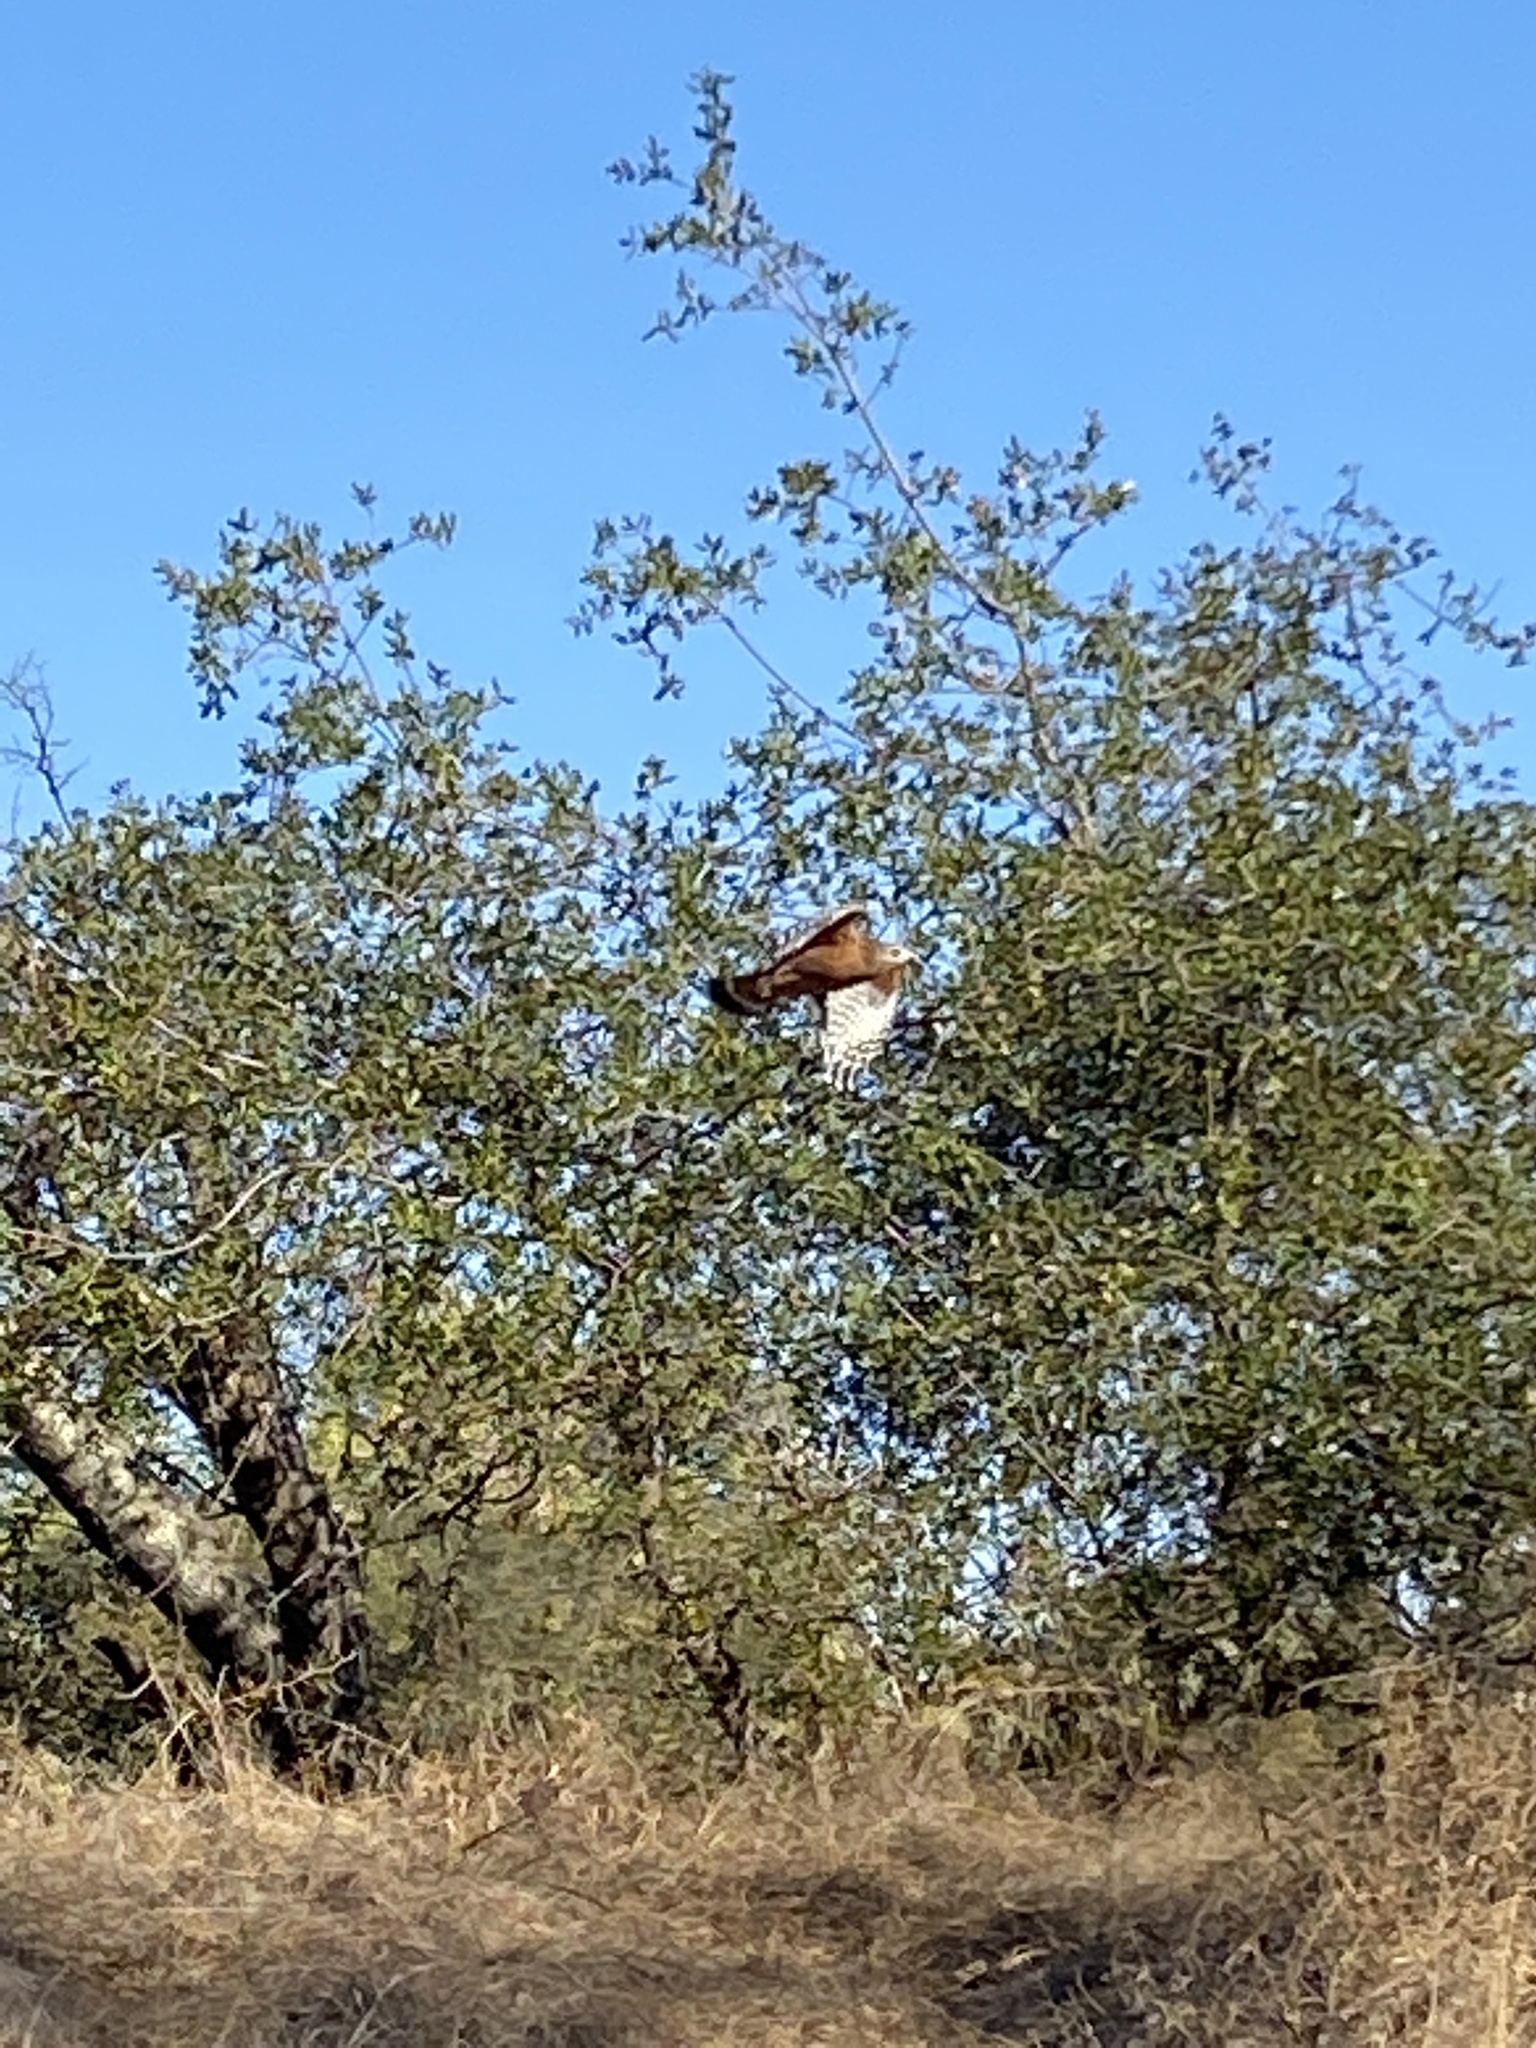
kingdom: Animalia
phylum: Chordata
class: Aves
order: Accipitriformes
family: Accipitridae
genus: Buteo
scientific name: Buteo lineatus
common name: Red-shouldered hawk
